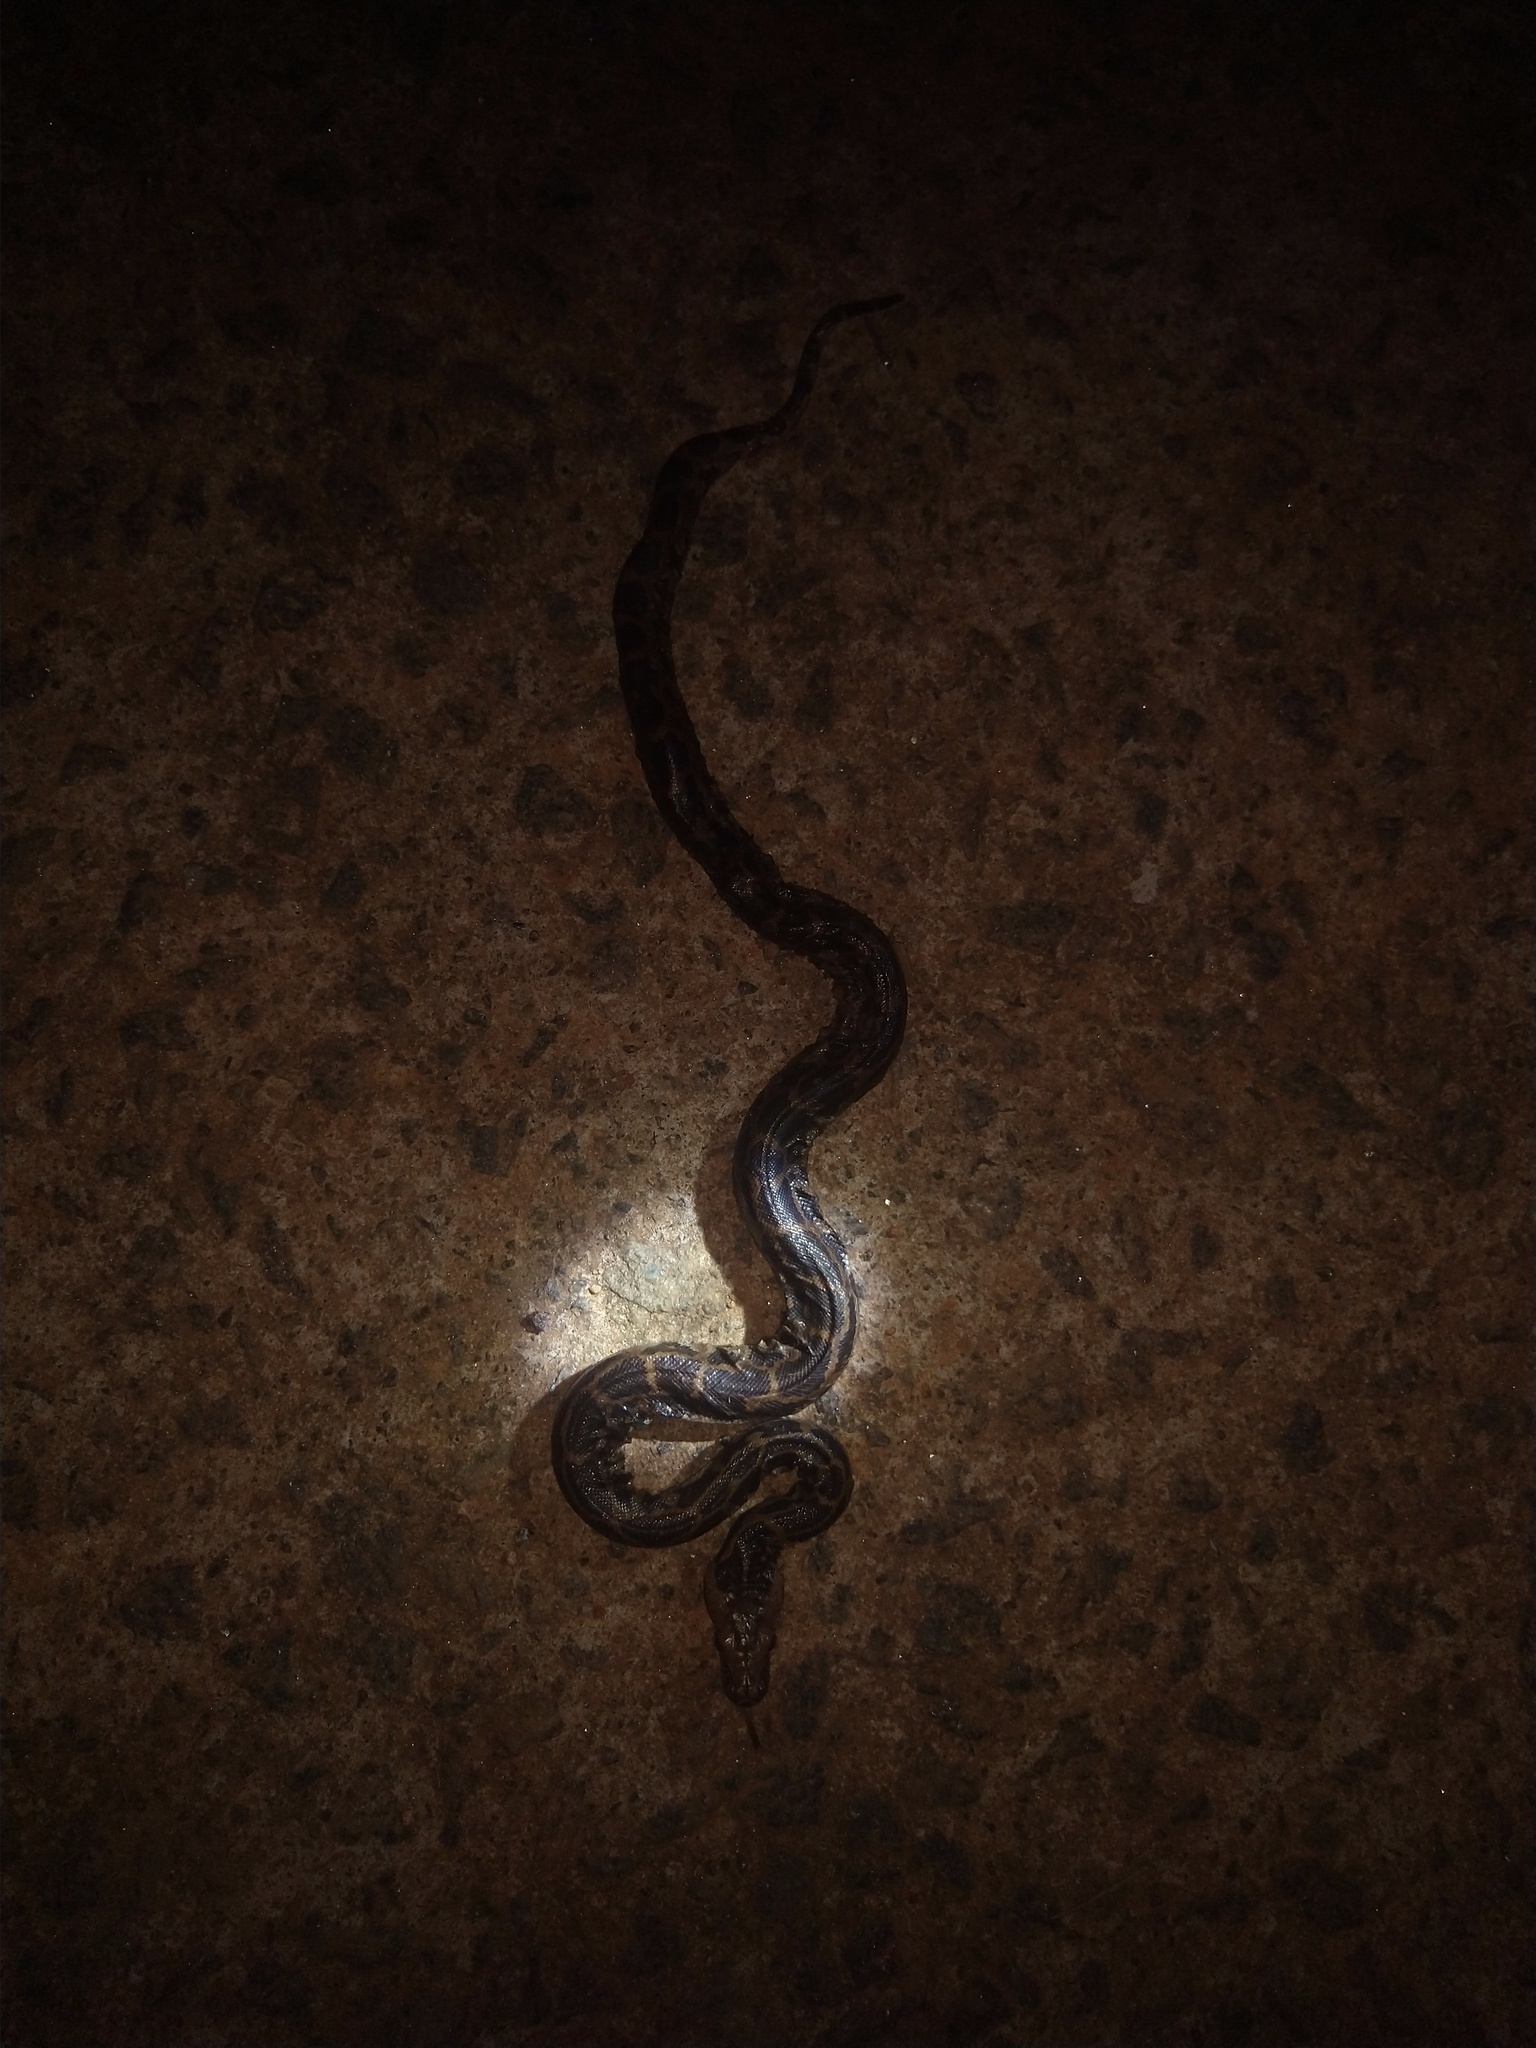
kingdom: Animalia
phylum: Chordata
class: Squamata
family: Pythonidae
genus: Python
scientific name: Python molurus
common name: Indian rock python
